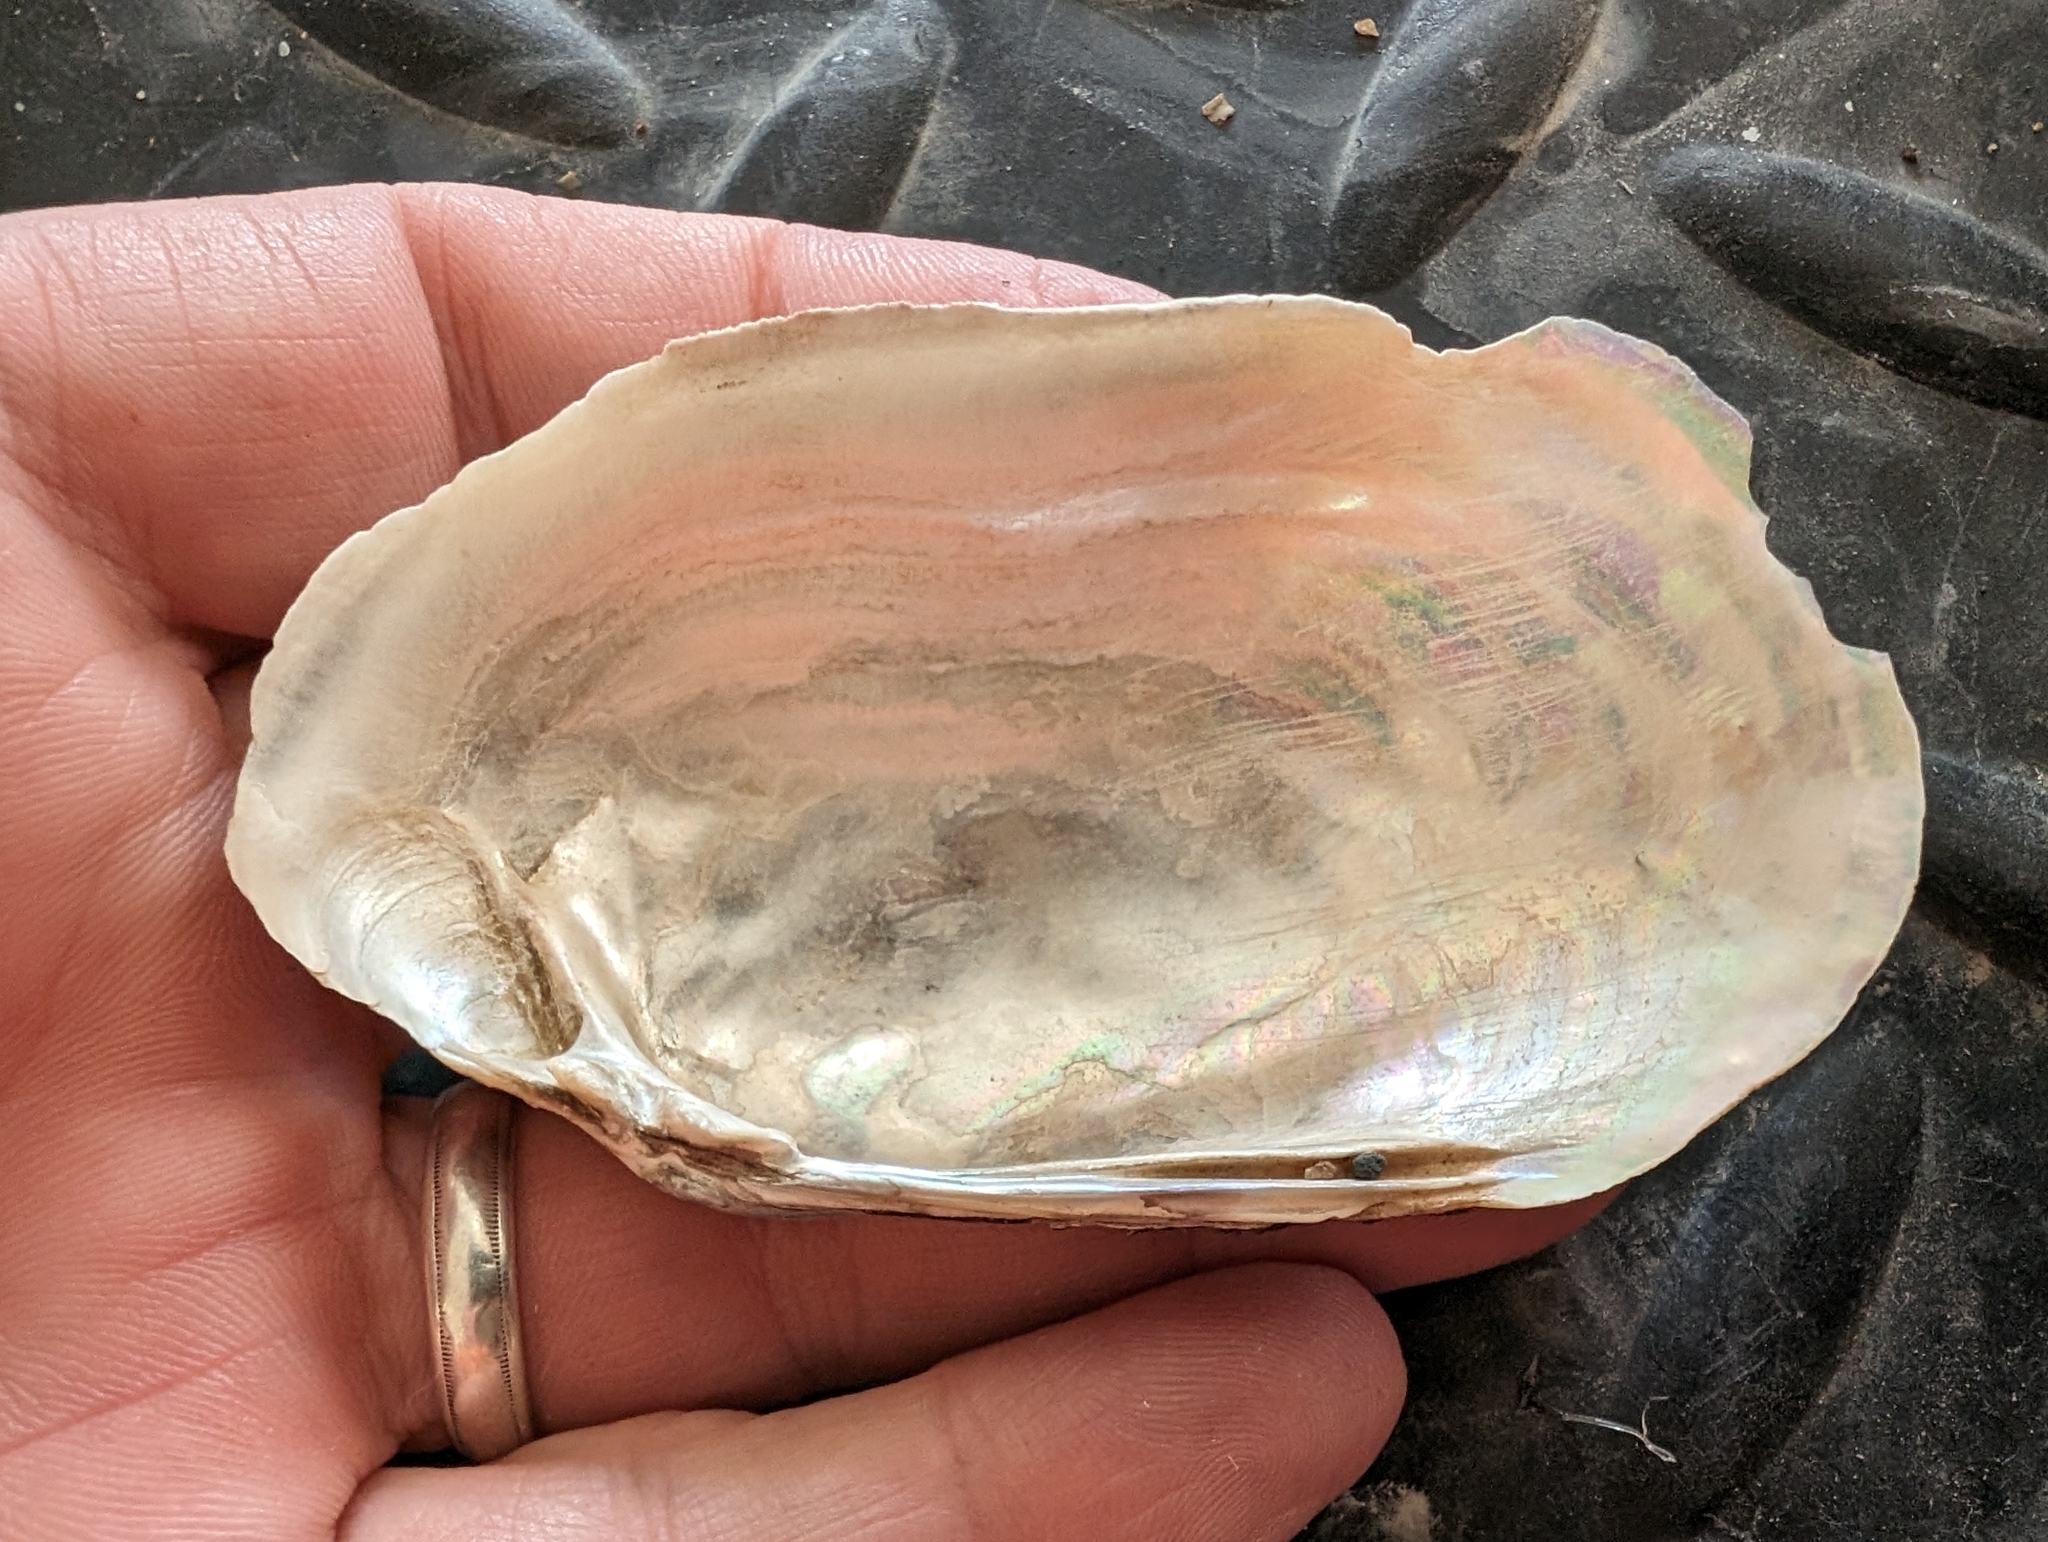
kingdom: Animalia
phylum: Mollusca
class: Bivalvia
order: Unionida
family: Unionidae
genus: Lampsilis
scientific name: Lampsilis siliquoidea
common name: Fatmucket
